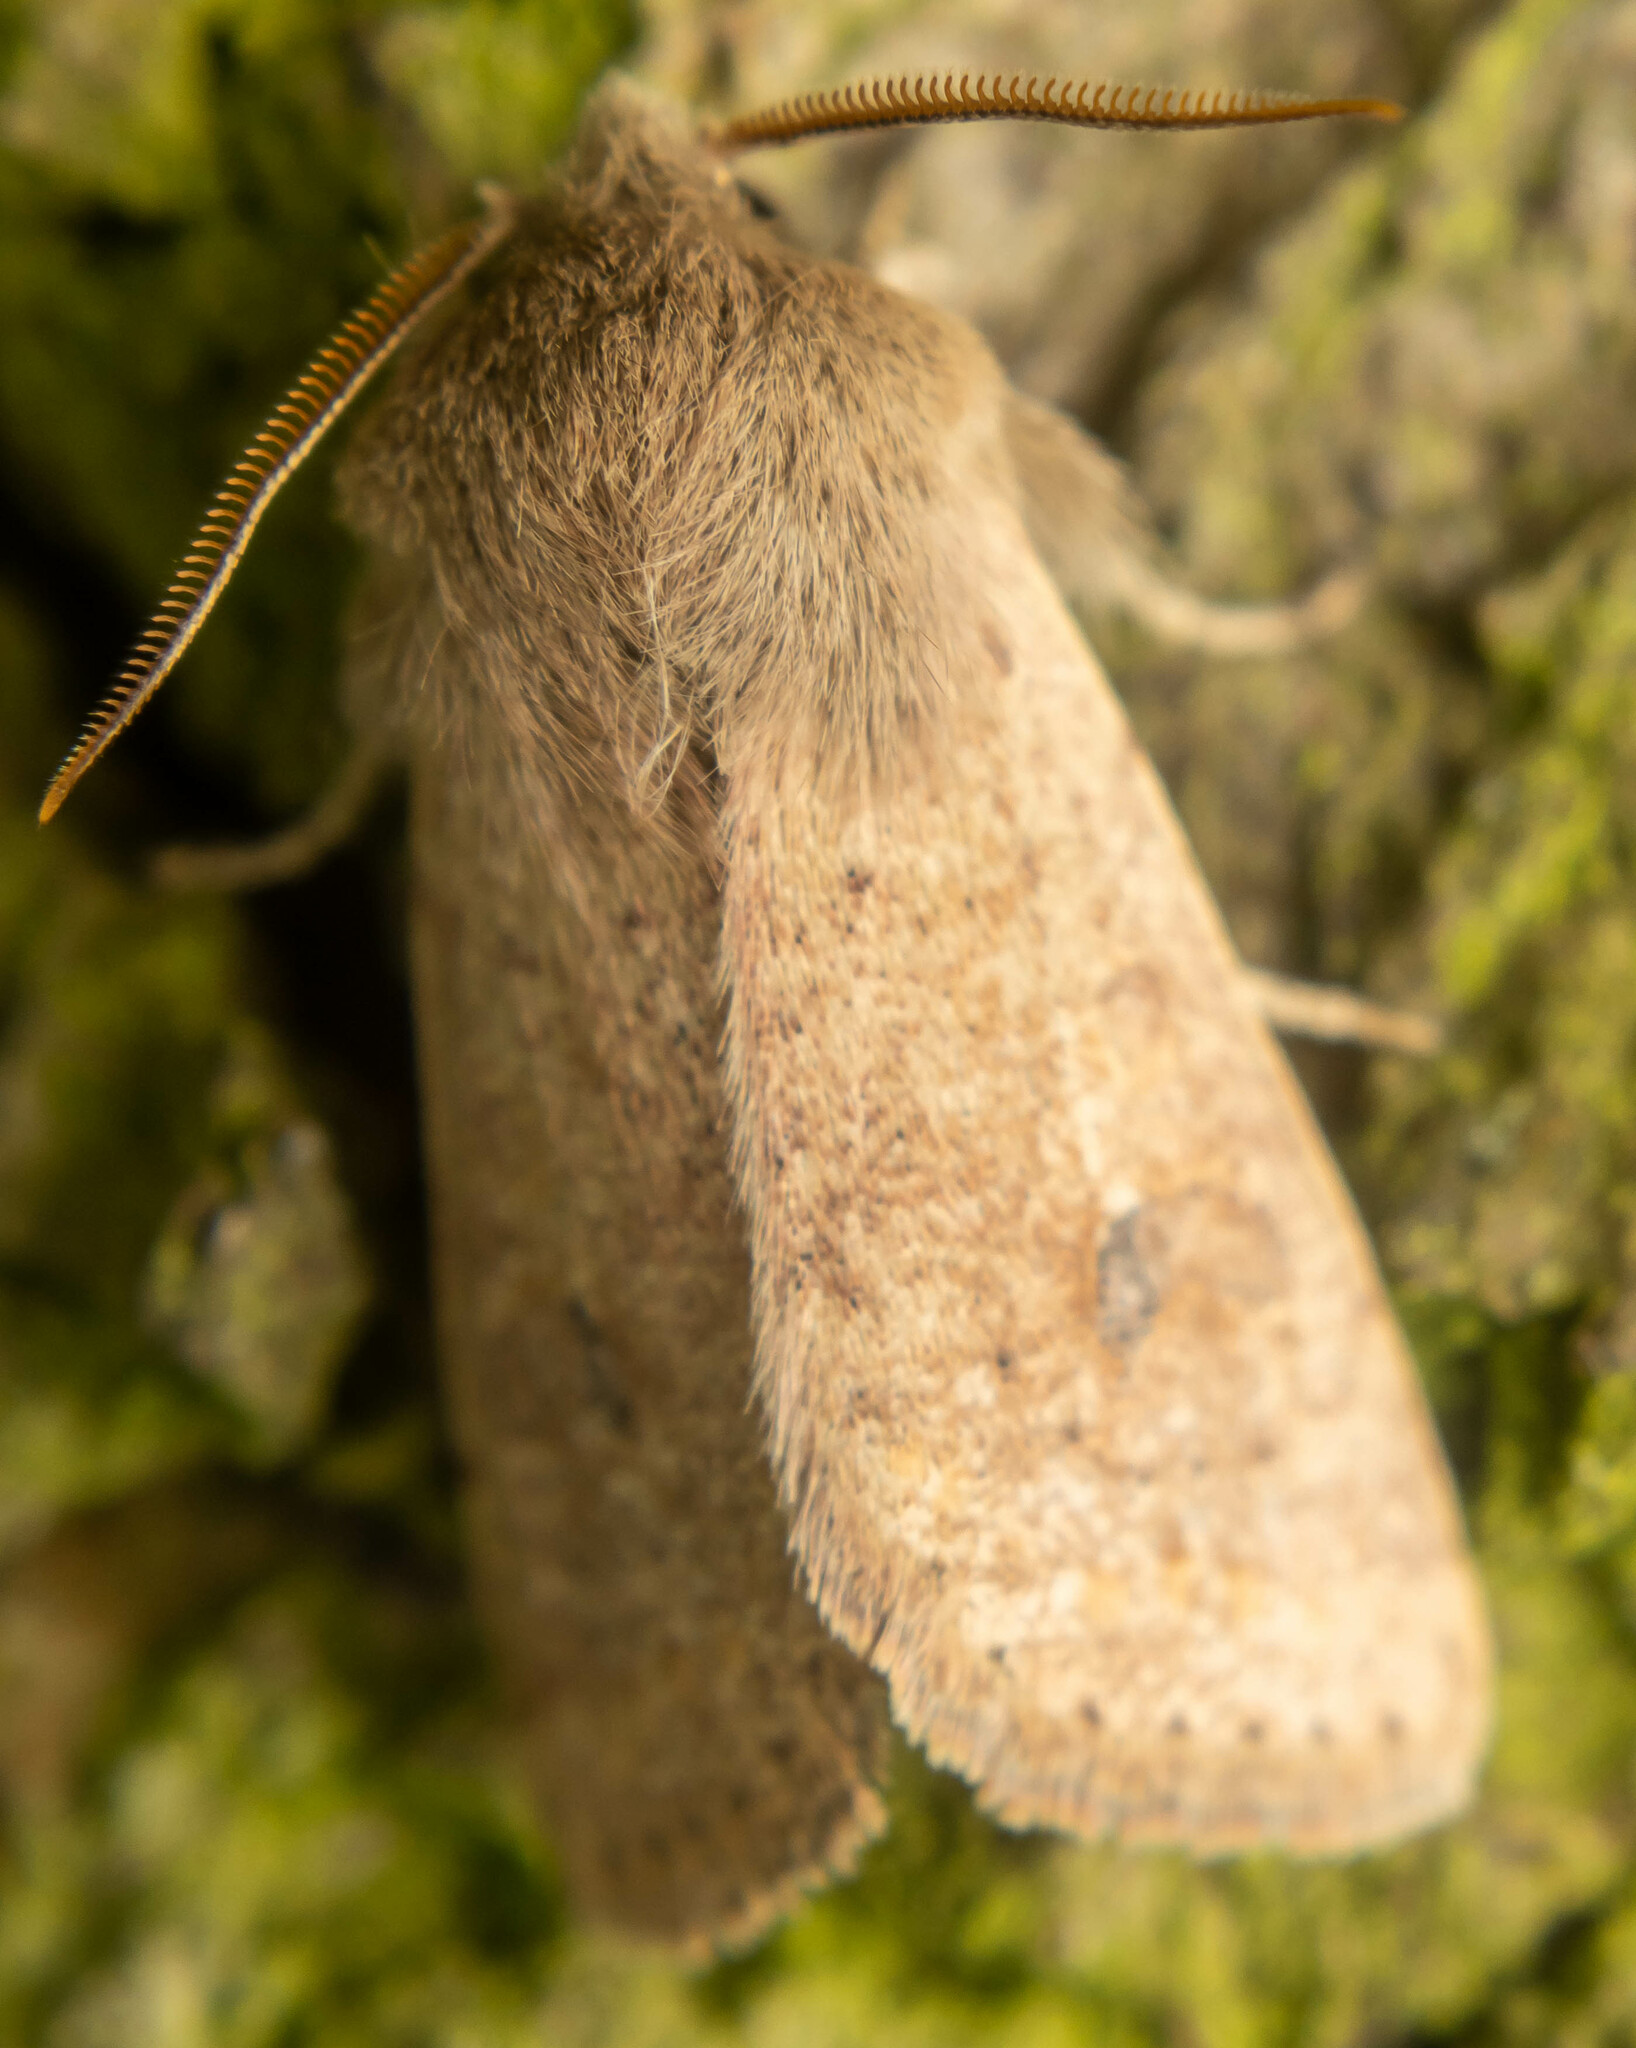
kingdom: Animalia
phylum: Arthropoda
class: Insecta
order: Lepidoptera
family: Noctuidae
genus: Orthosia
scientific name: Orthosia cruda
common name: Small quaker
